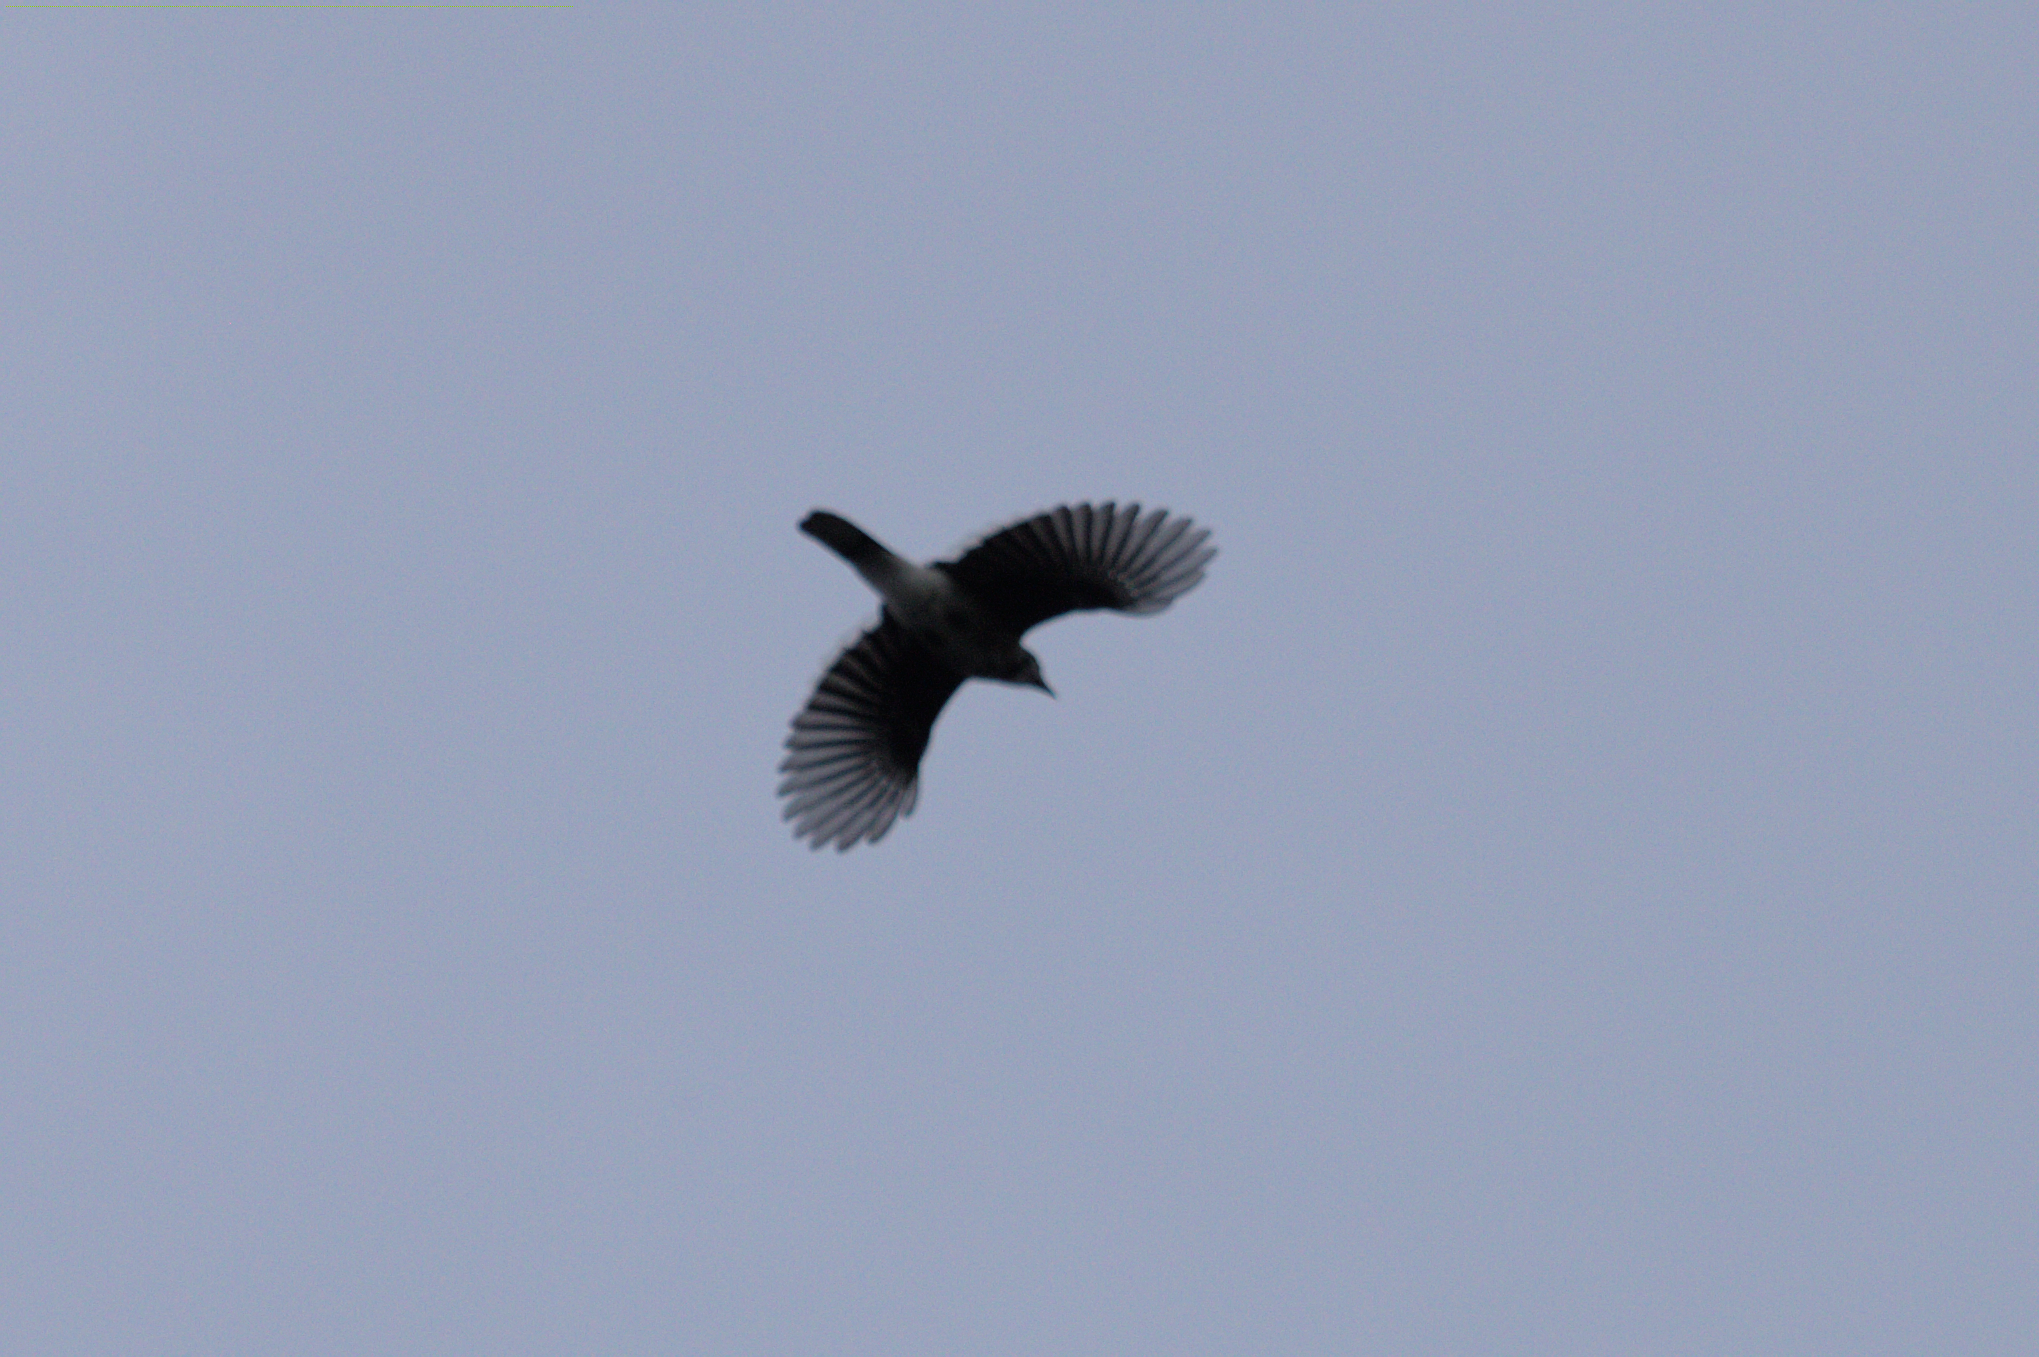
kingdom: Animalia
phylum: Chordata
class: Aves
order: Passeriformes
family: Corvidae
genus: Cyanocitta
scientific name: Cyanocitta cristata
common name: Blue jay
